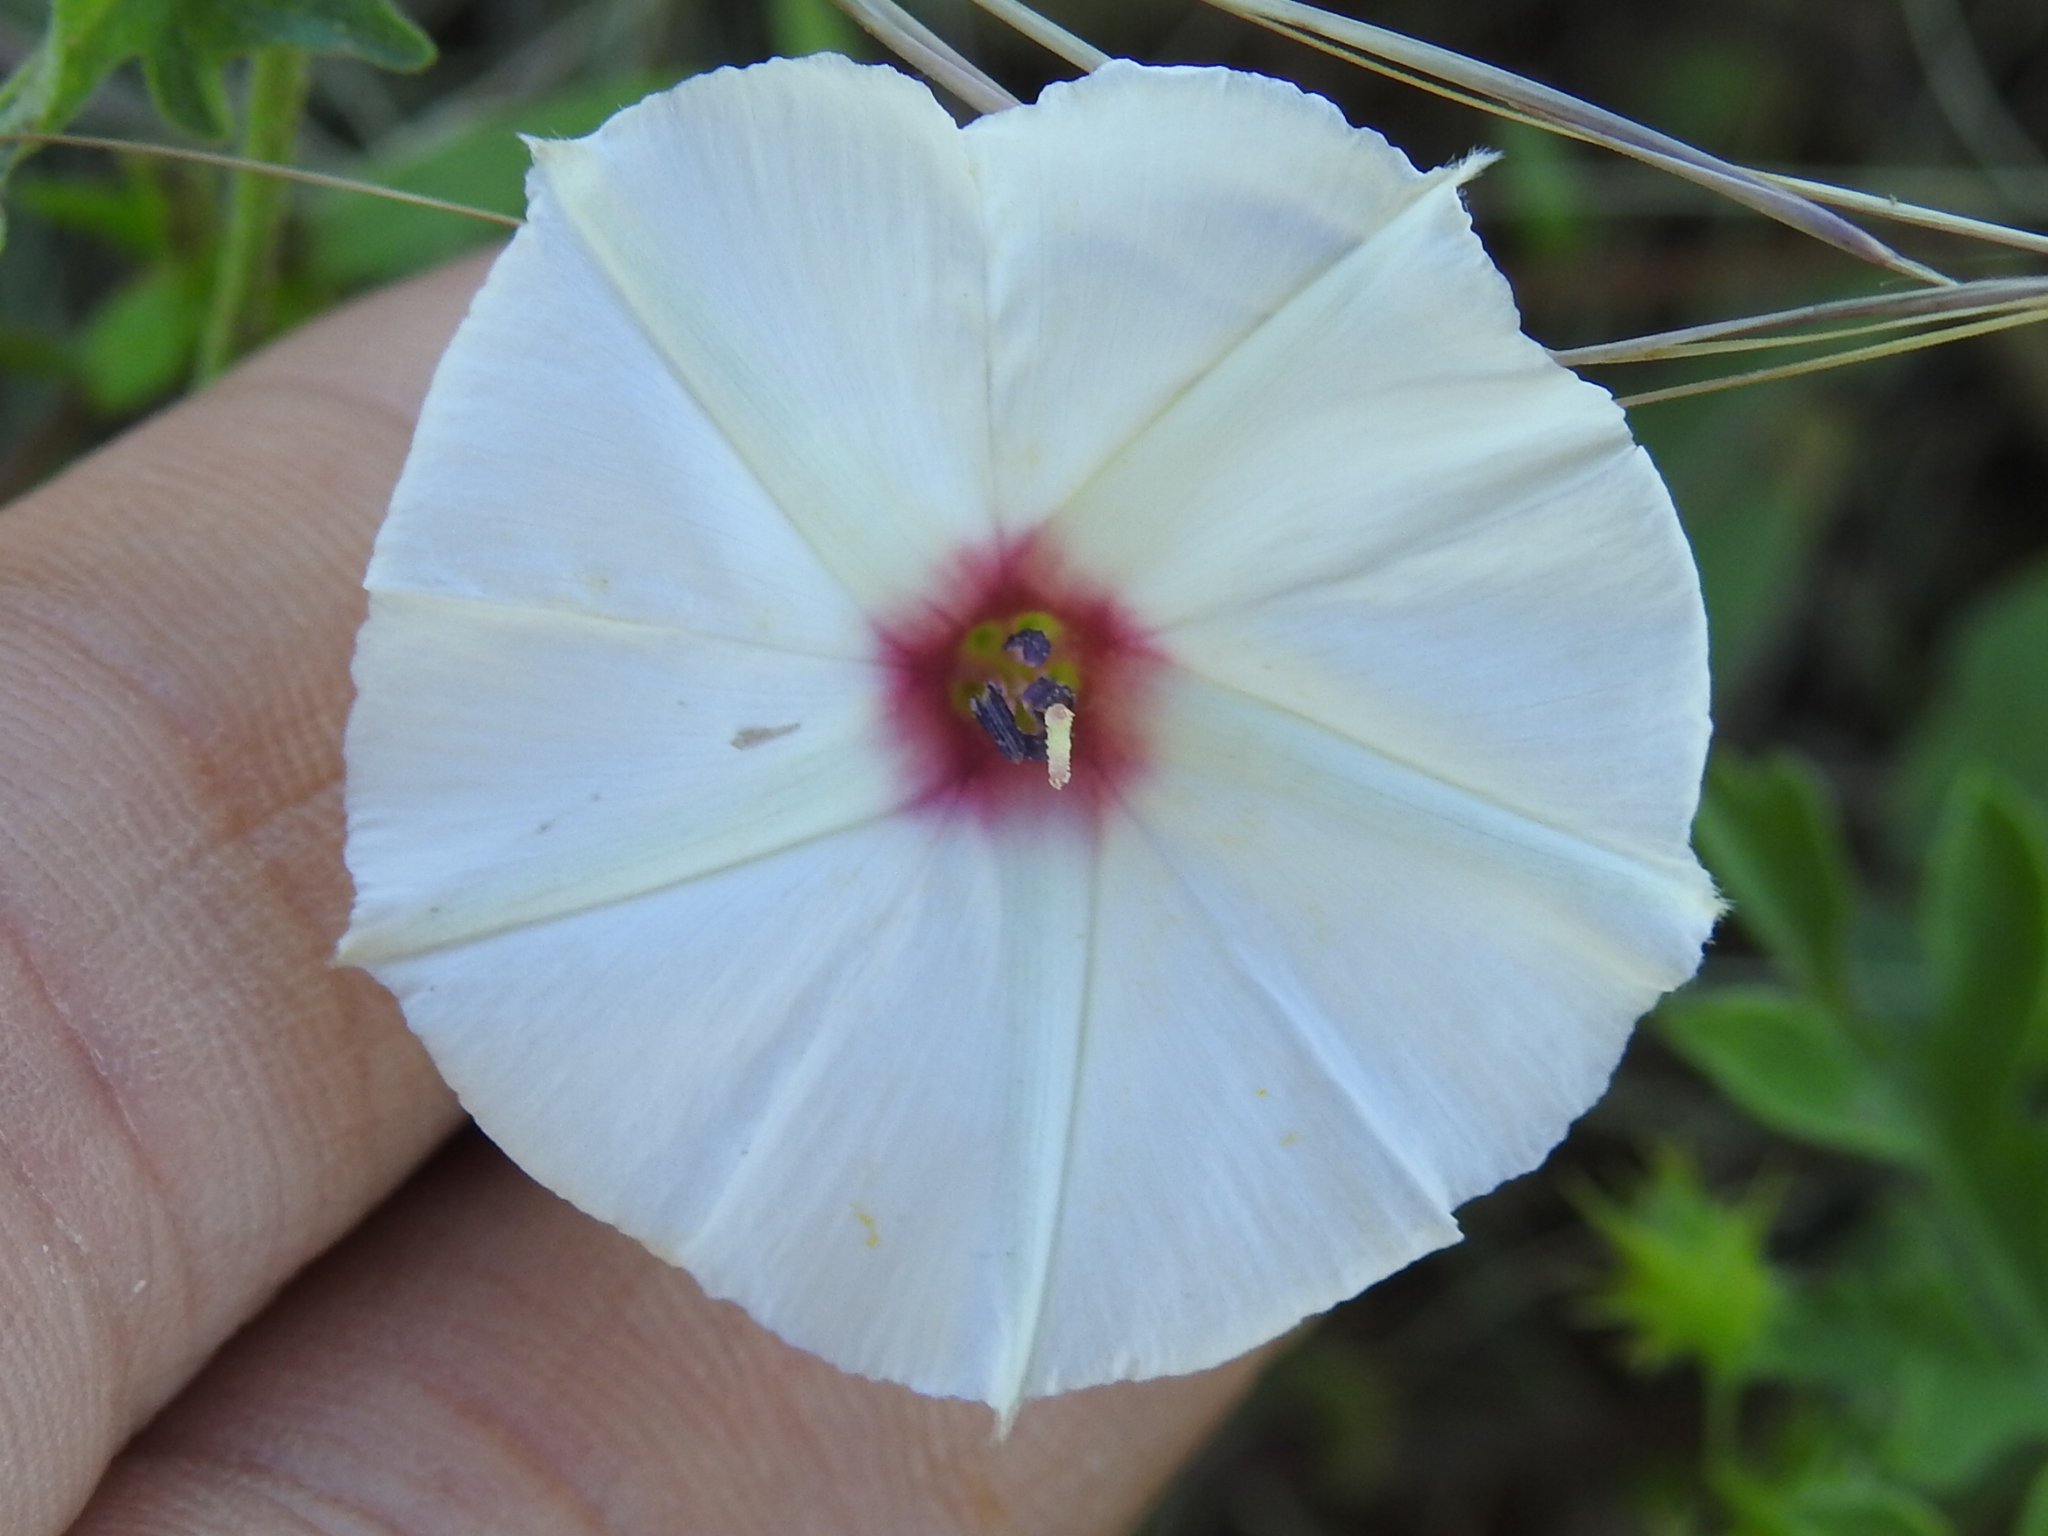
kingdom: Plantae
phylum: Tracheophyta
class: Magnoliopsida
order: Solanales
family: Convolvulaceae
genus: Convolvulus
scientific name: Convolvulus equitans
